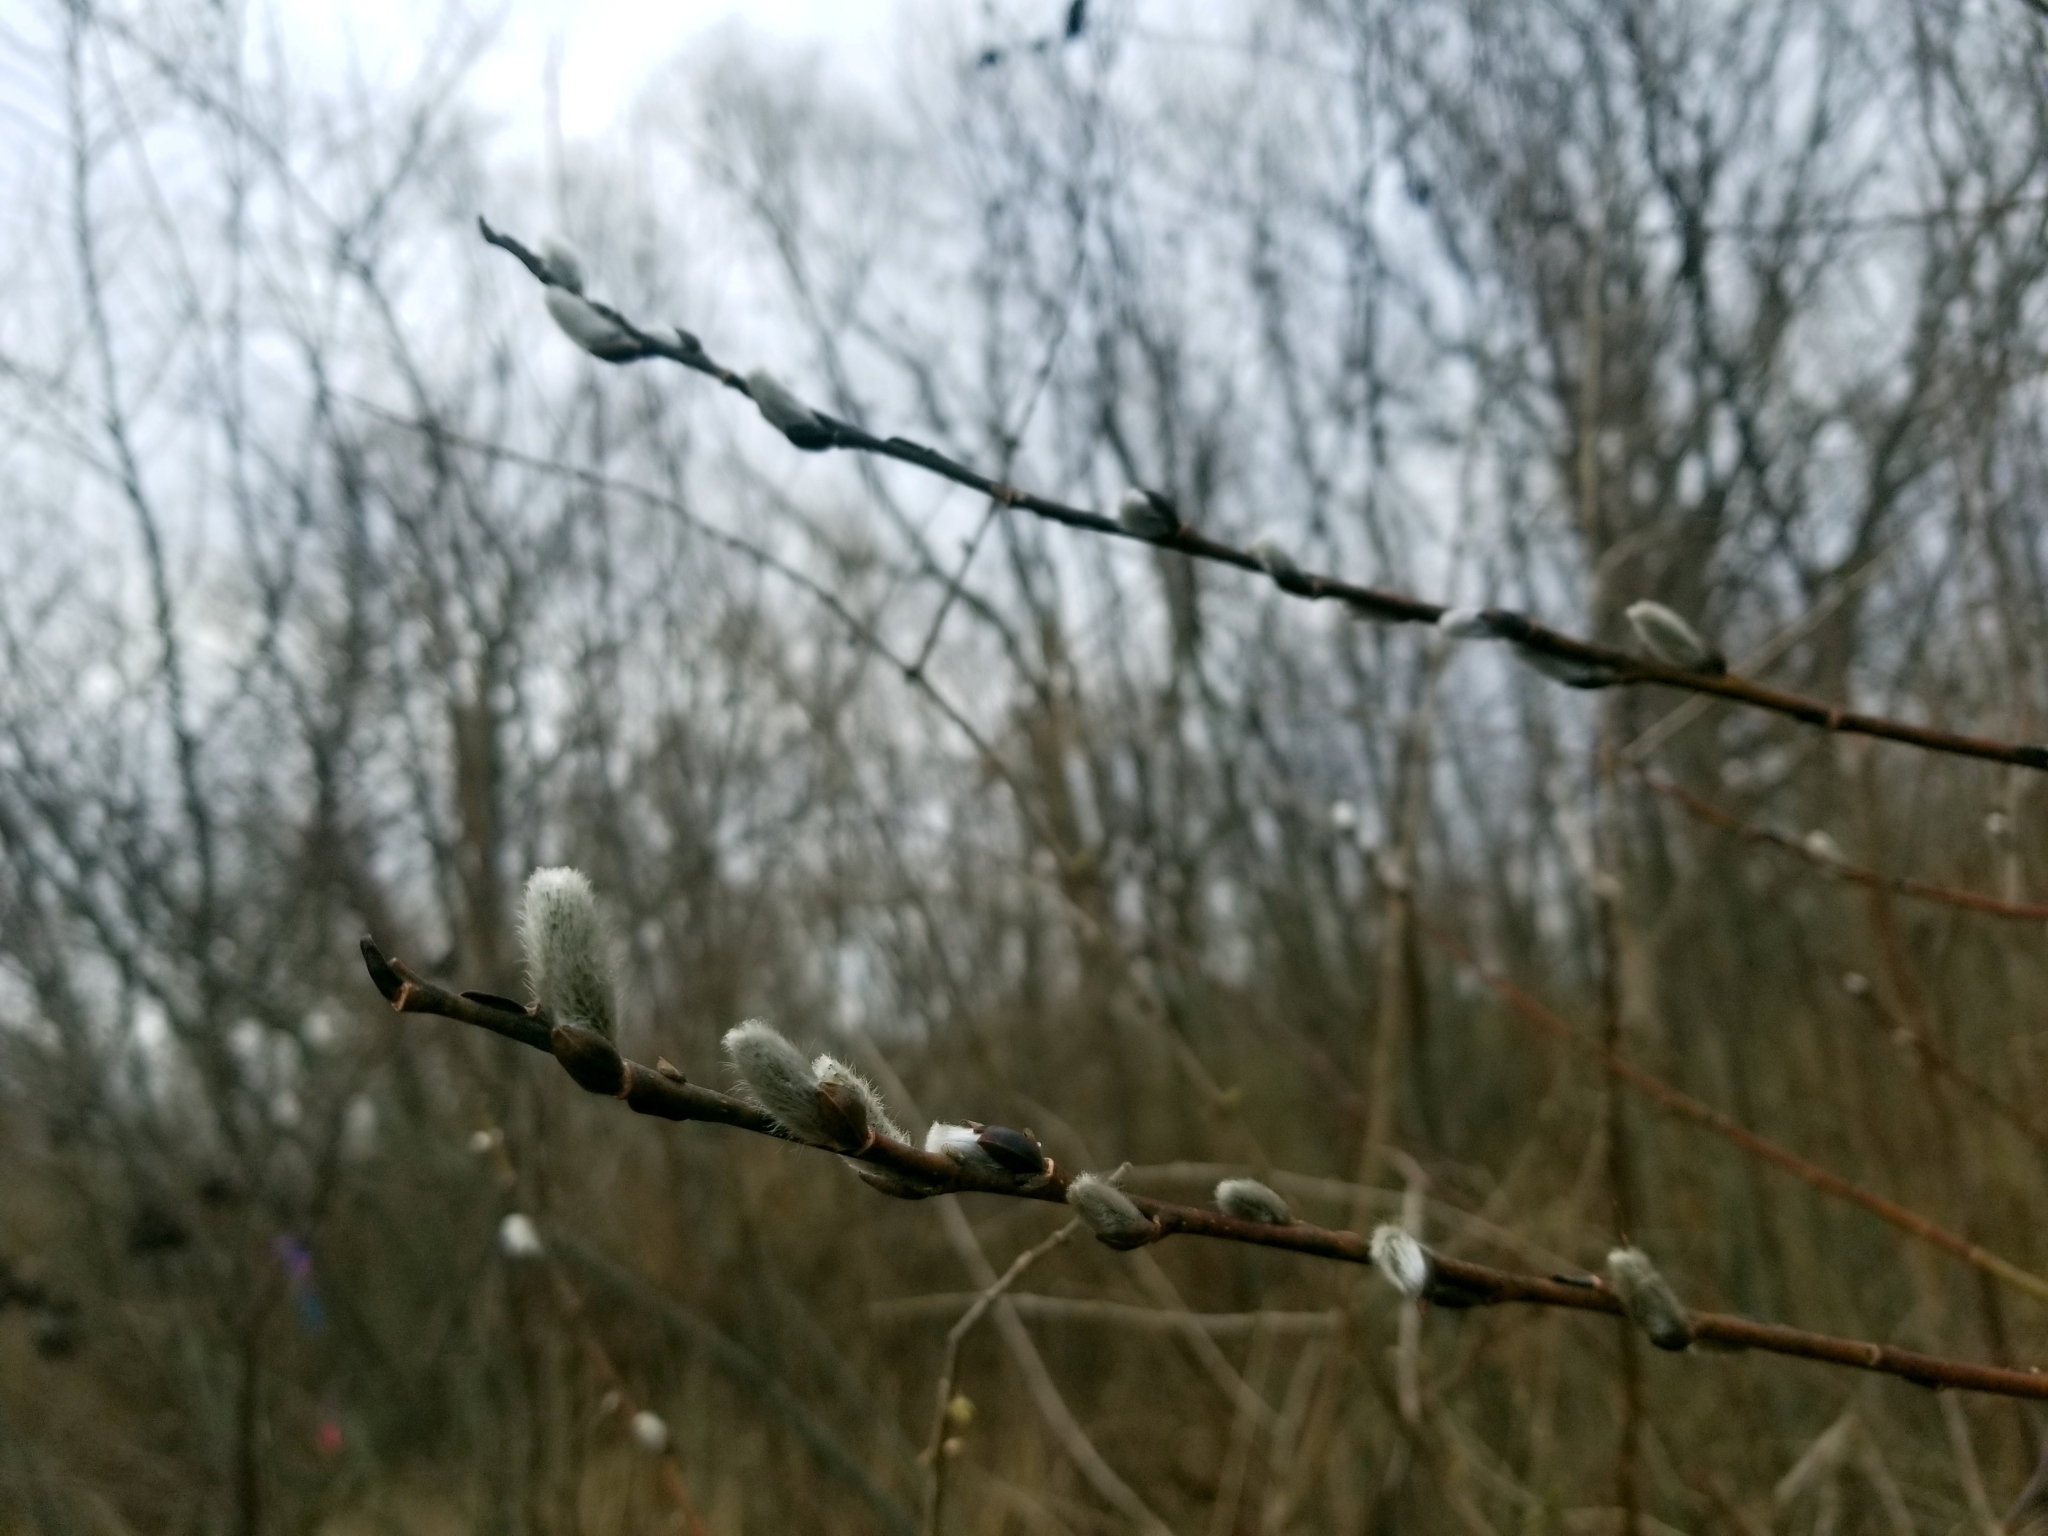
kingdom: Plantae
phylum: Tracheophyta
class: Magnoliopsida
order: Malpighiales
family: Salicaceae
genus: Salix
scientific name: Salix discolor
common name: Glaucous willow
